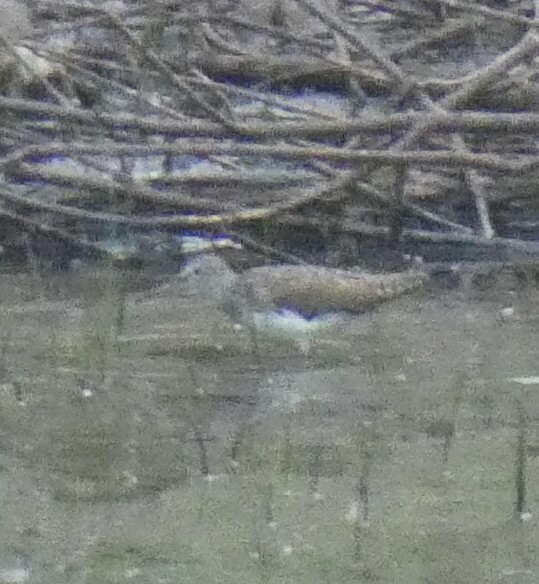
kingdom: Animalia
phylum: Chordata
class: Aves
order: Charadriiformes
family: Scolopacidae
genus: Tringa
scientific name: Tringa ochropus
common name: Green sandpiper
